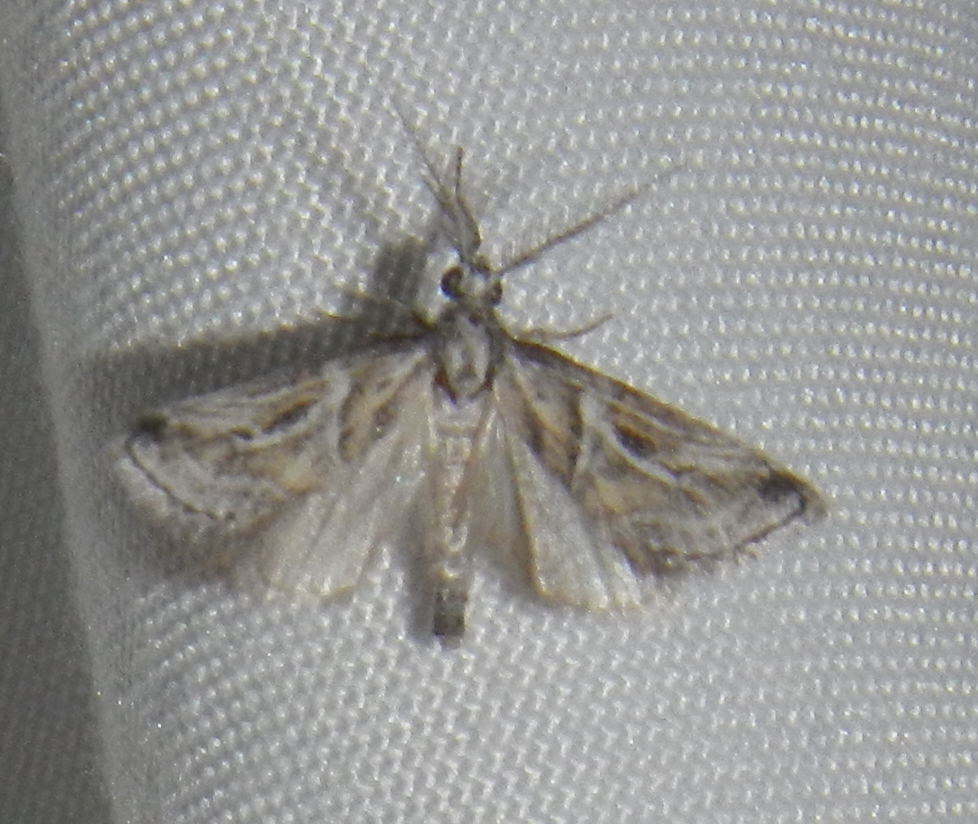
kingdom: Animalia
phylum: Arthropoda
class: Insecta
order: Lepidoptera
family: Pyralidae
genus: Alpheias
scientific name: Alpheias Decaturia pectinalis
